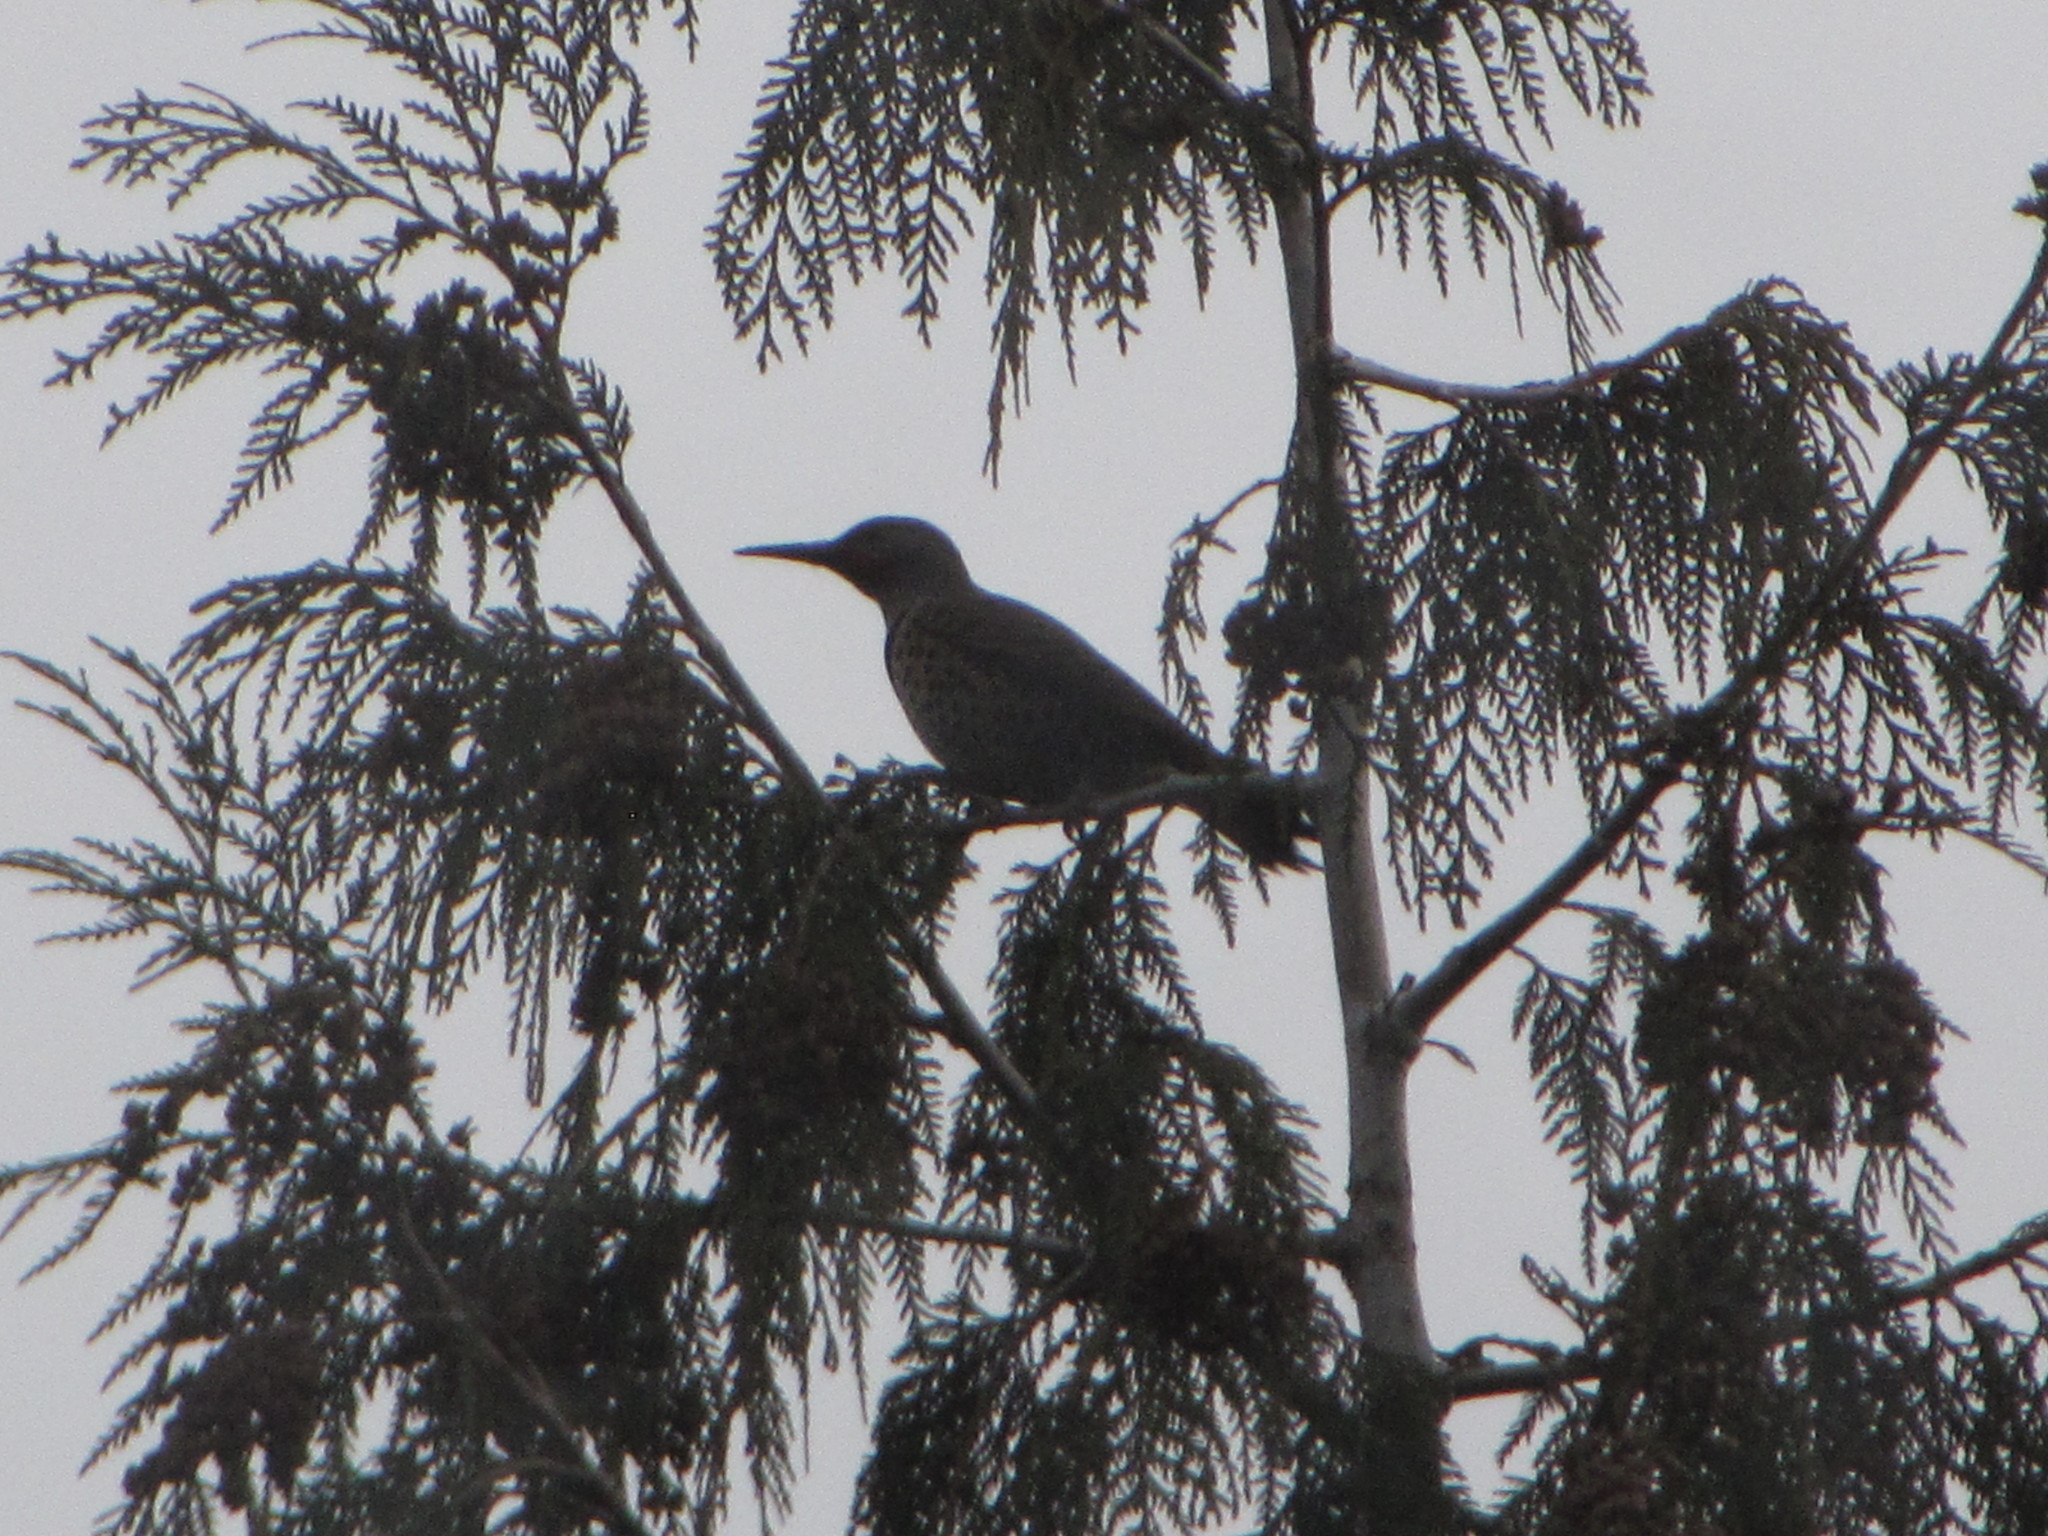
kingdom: Animalia
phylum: Chordata
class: Aves
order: Piciformes
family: Picidae
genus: Colaptes
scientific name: Colaptes auratus
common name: Northern flicker
